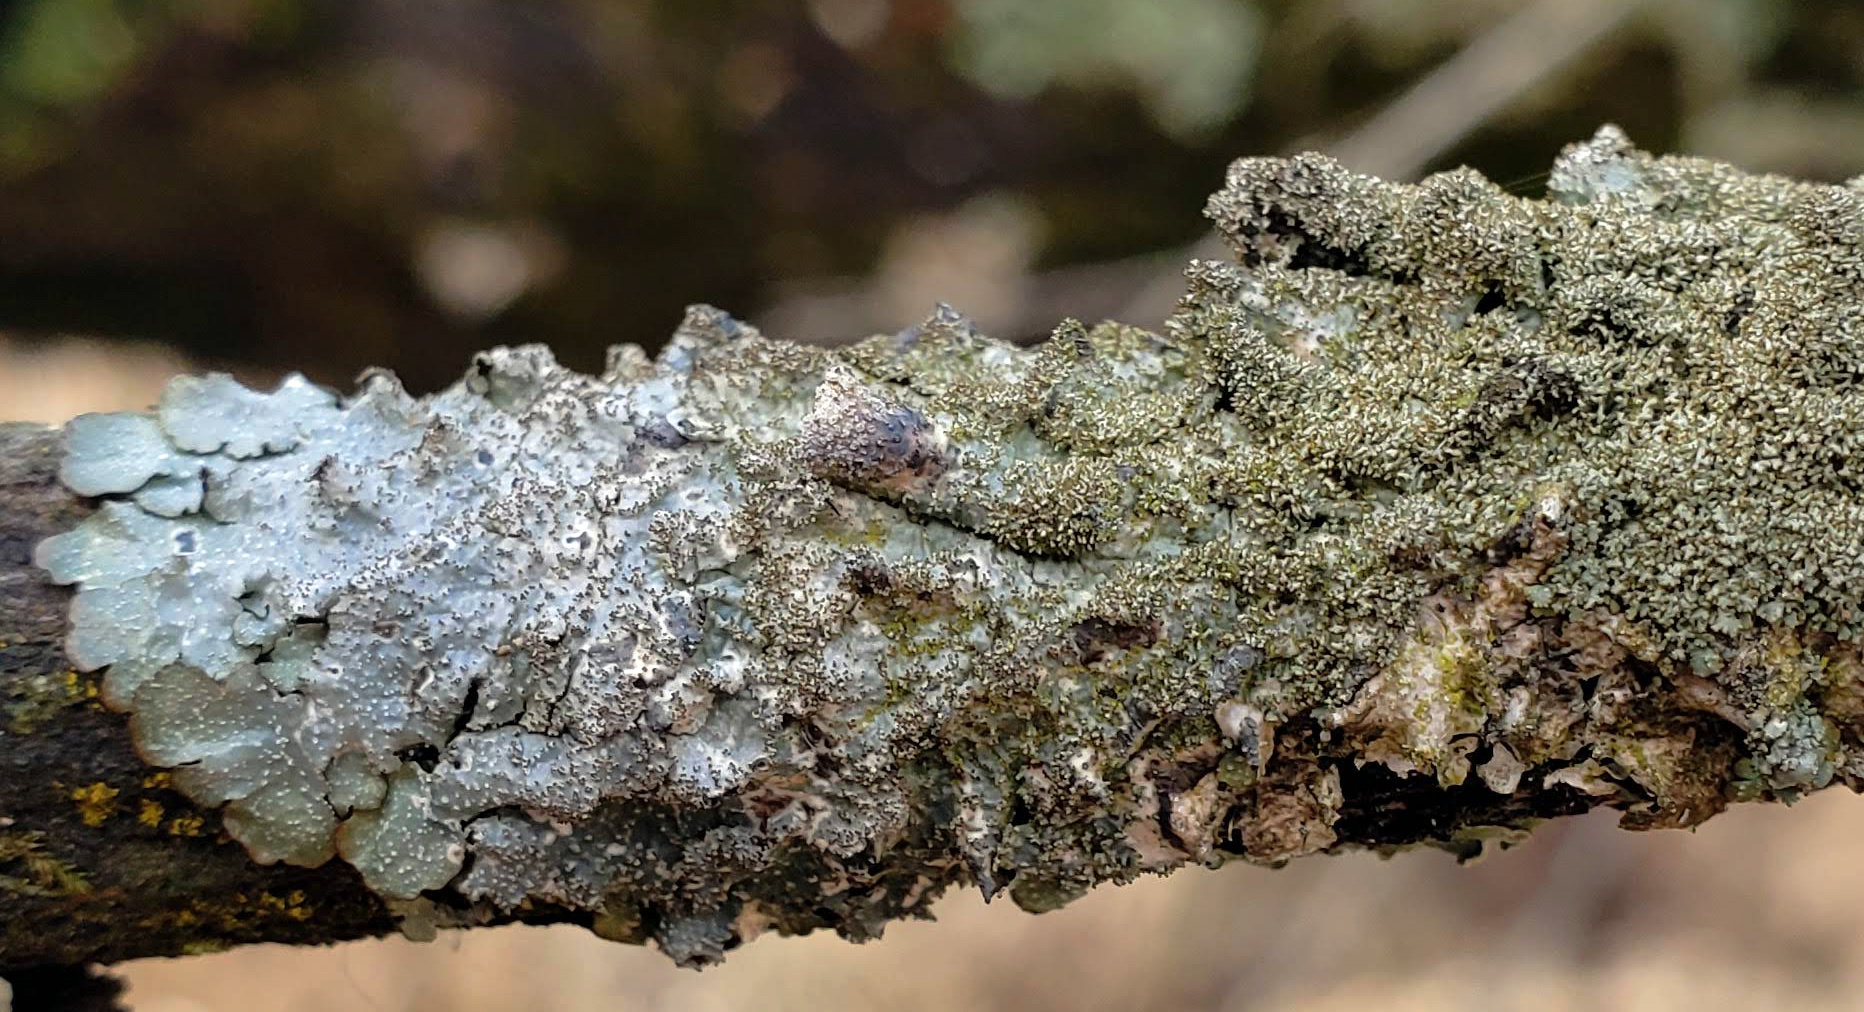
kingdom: Fungi
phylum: Ascomycota
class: Lecanoromycetes
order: Lecanorales
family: Parmeliaceae
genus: Punctelia
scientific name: Punctelia rudecta
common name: Rough speckled shield lichen
